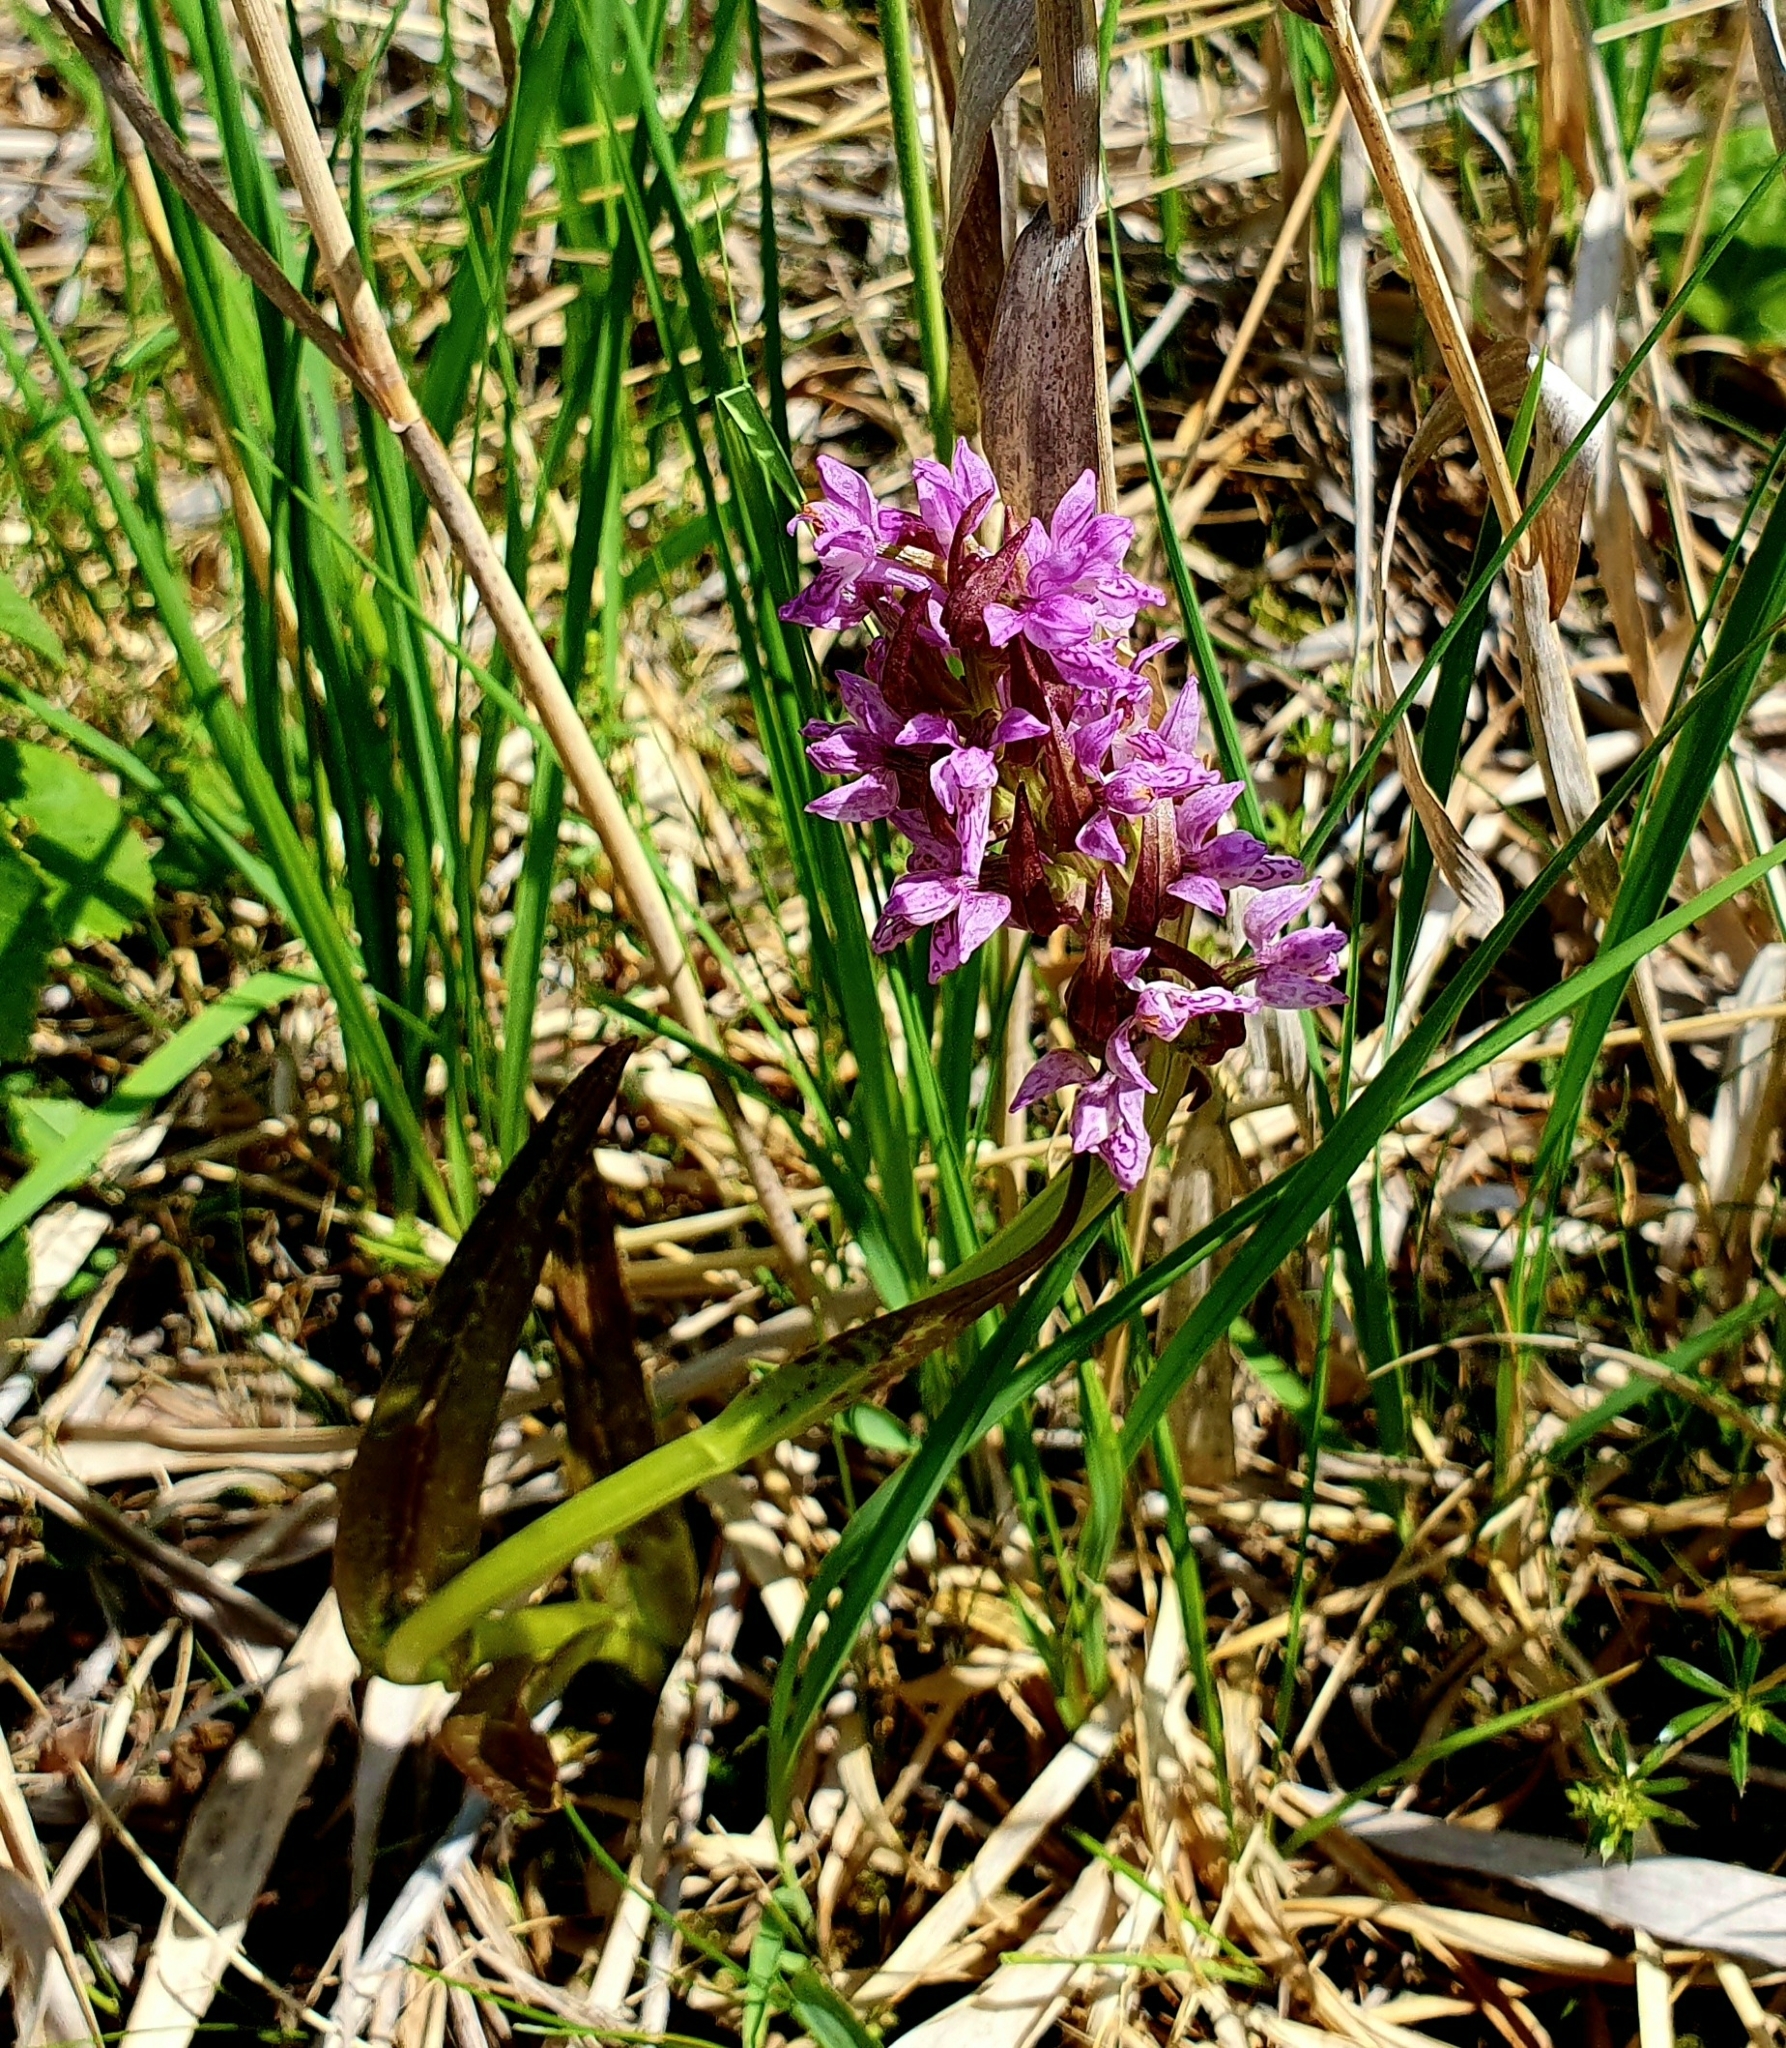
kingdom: Plantae
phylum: Tracheophyta
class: Liliopsida
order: Asparagales
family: Orchidaceae
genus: Dactylorhiza
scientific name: Dactylorhiza incarnata
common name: Early marsh-orchid
